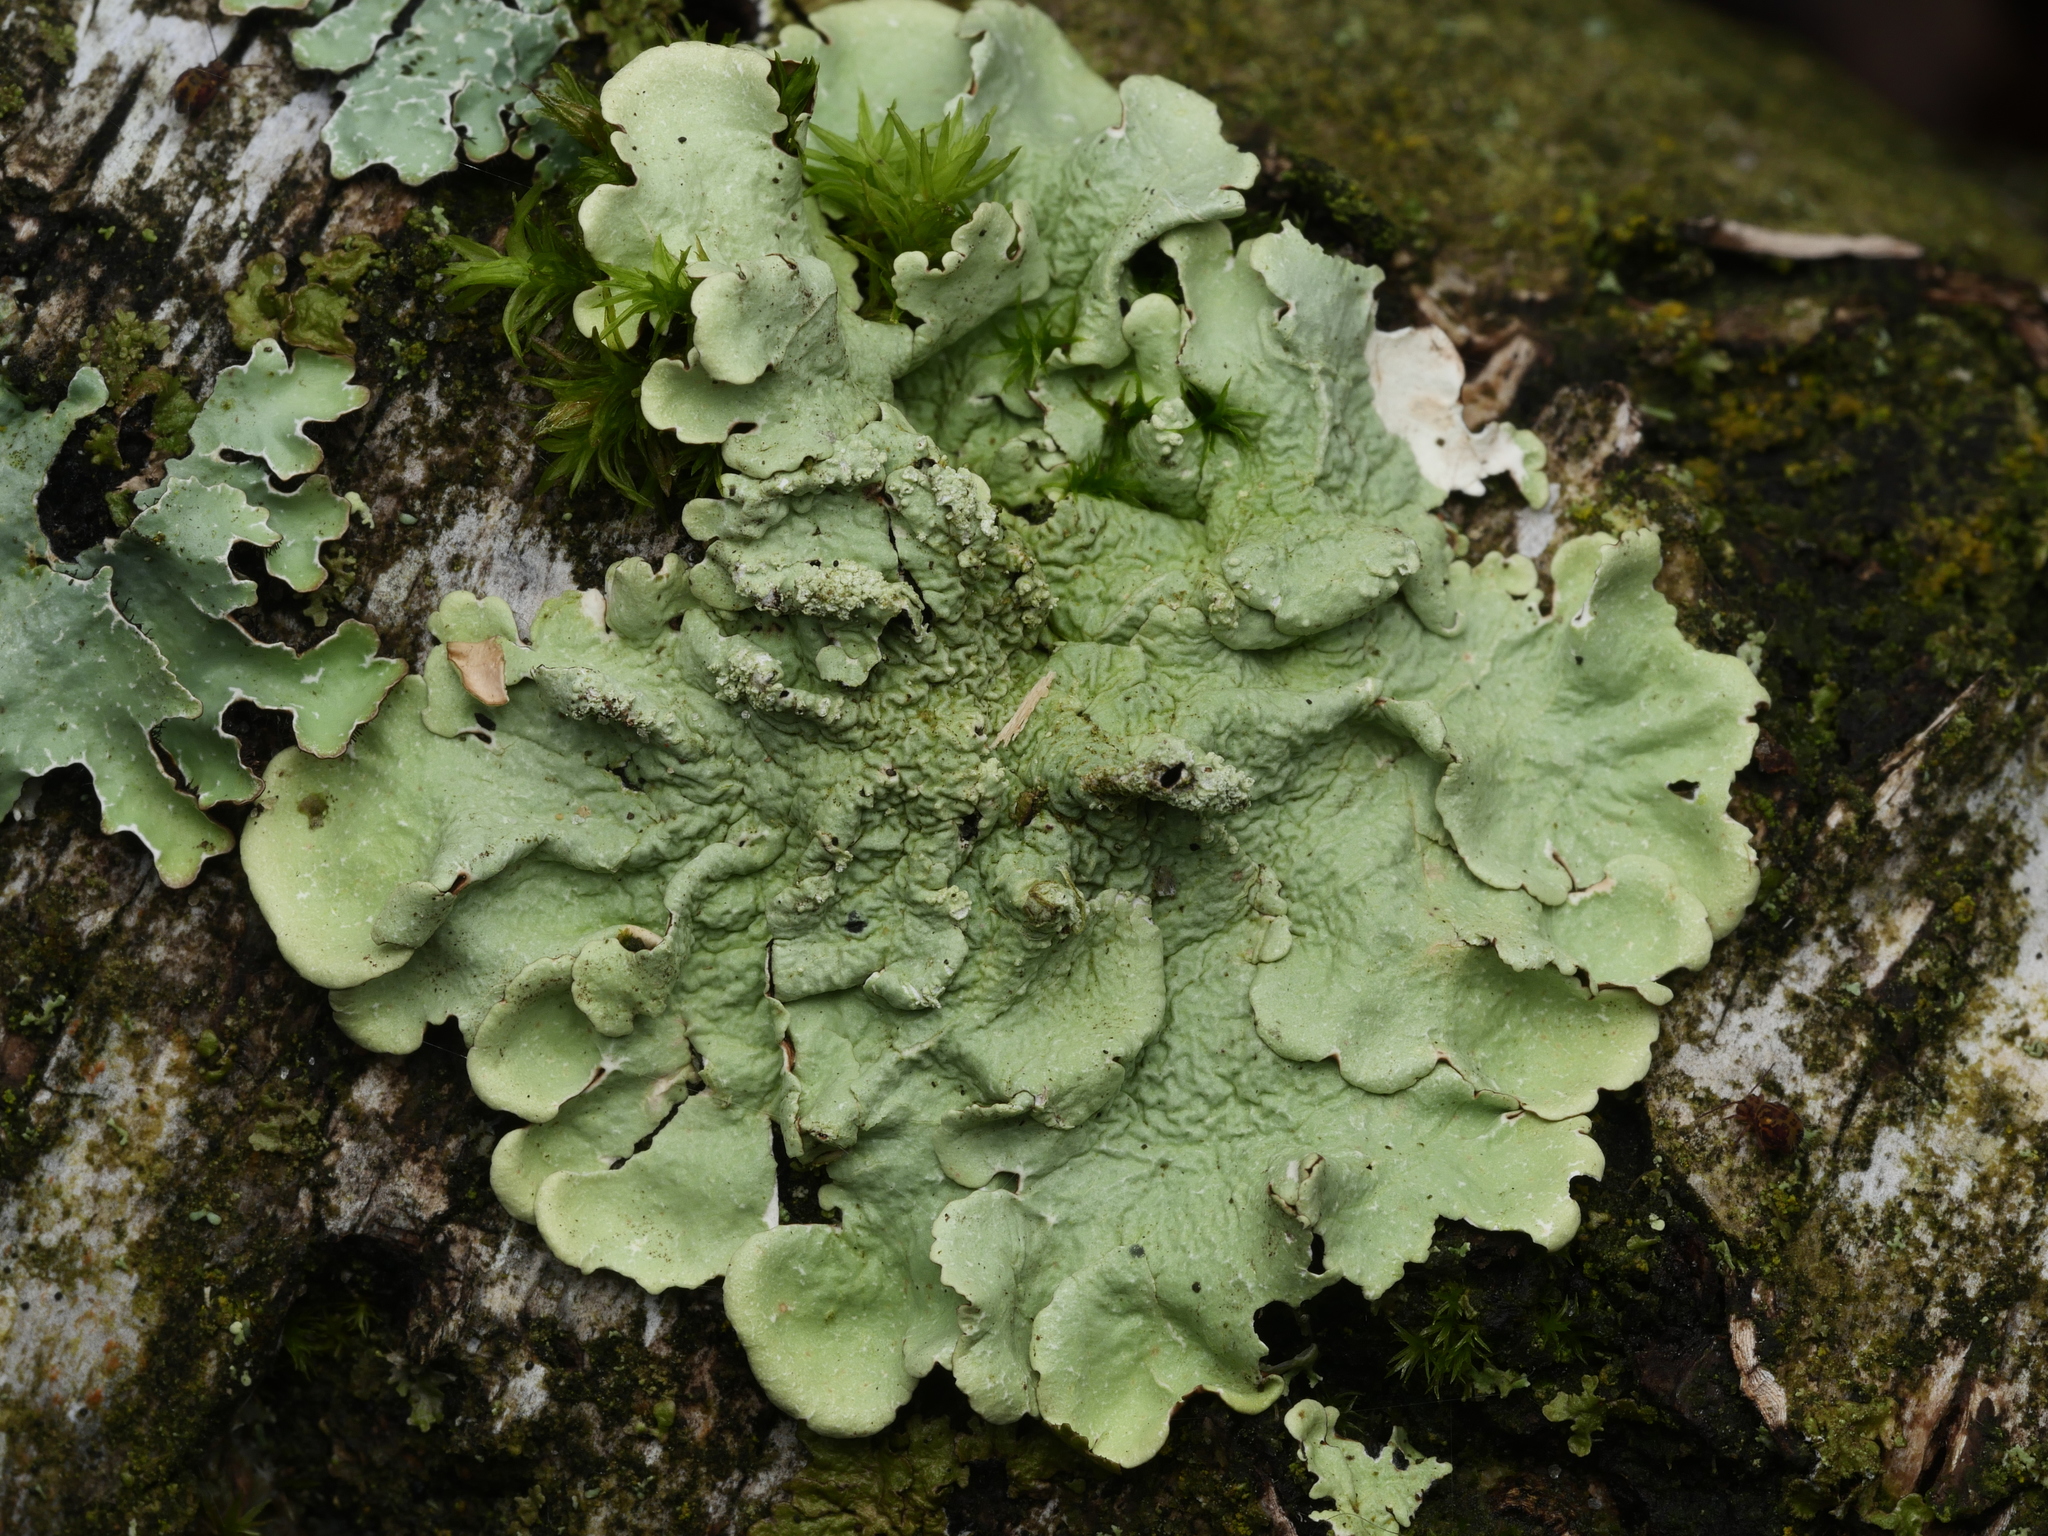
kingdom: Fungi
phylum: Ascomycota
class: Lecanoromycetes
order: Lecanorales
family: Parmeliaceae
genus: Flavoparmelia
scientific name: Flavoparmelia caperata
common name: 40-mile per hour lichen
